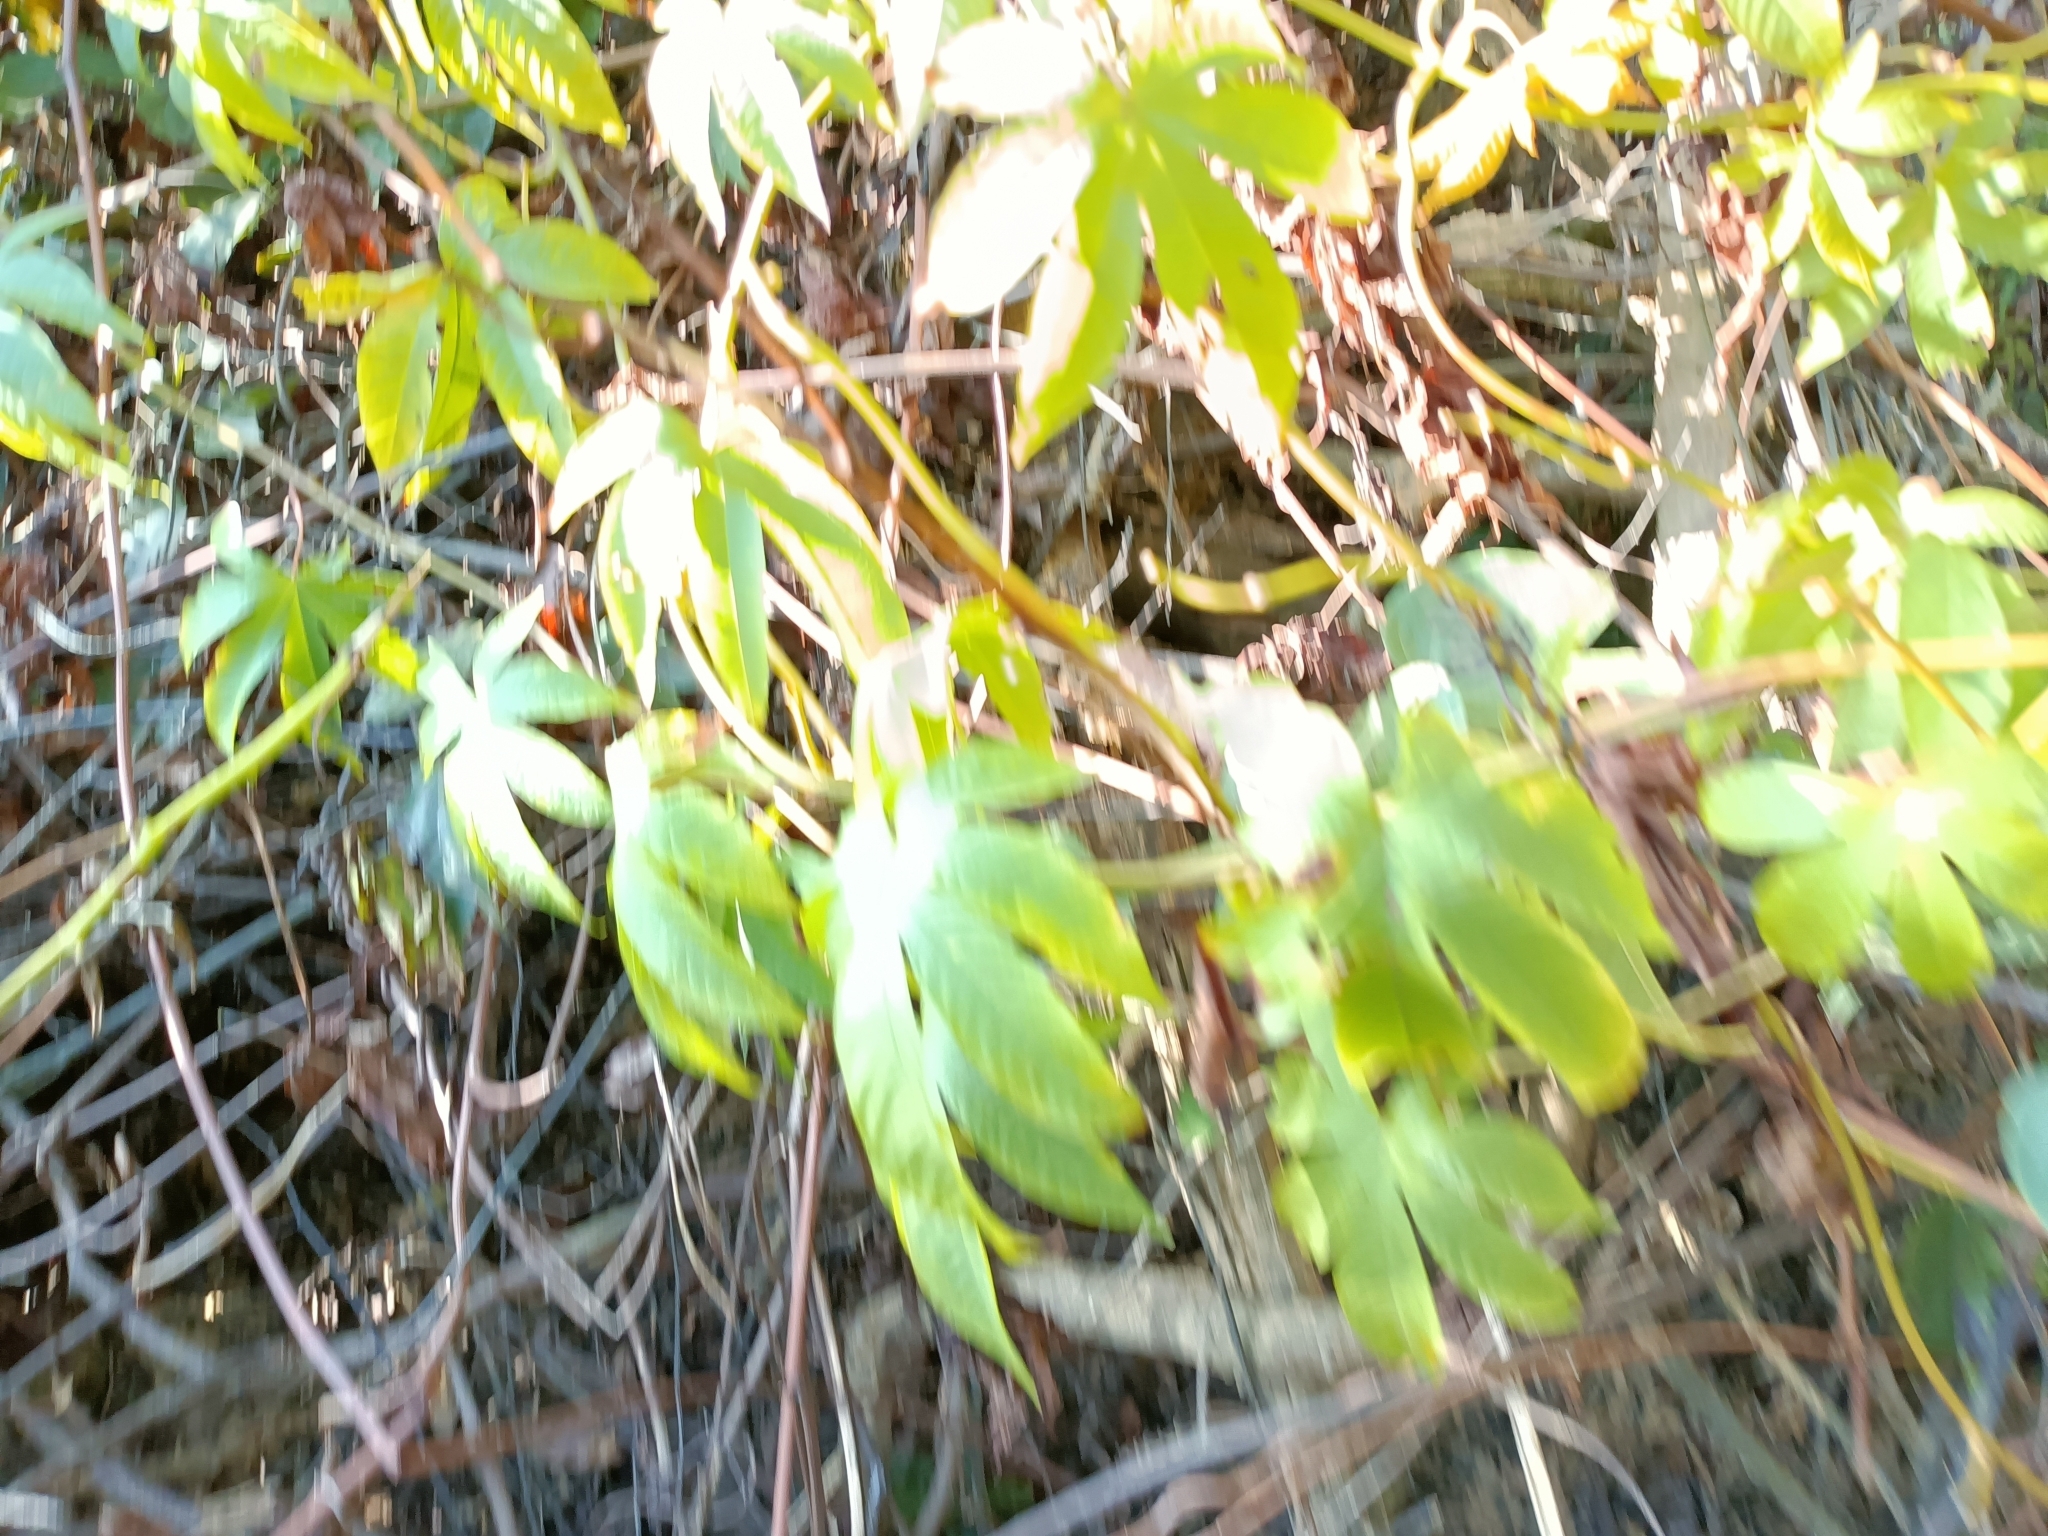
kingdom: Plantae
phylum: Tracheophyta
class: Magnoliopsida
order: Solanales
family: Convolvulaceae
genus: Distimake
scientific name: Distimake tuberosus
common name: Spanish arborvine
